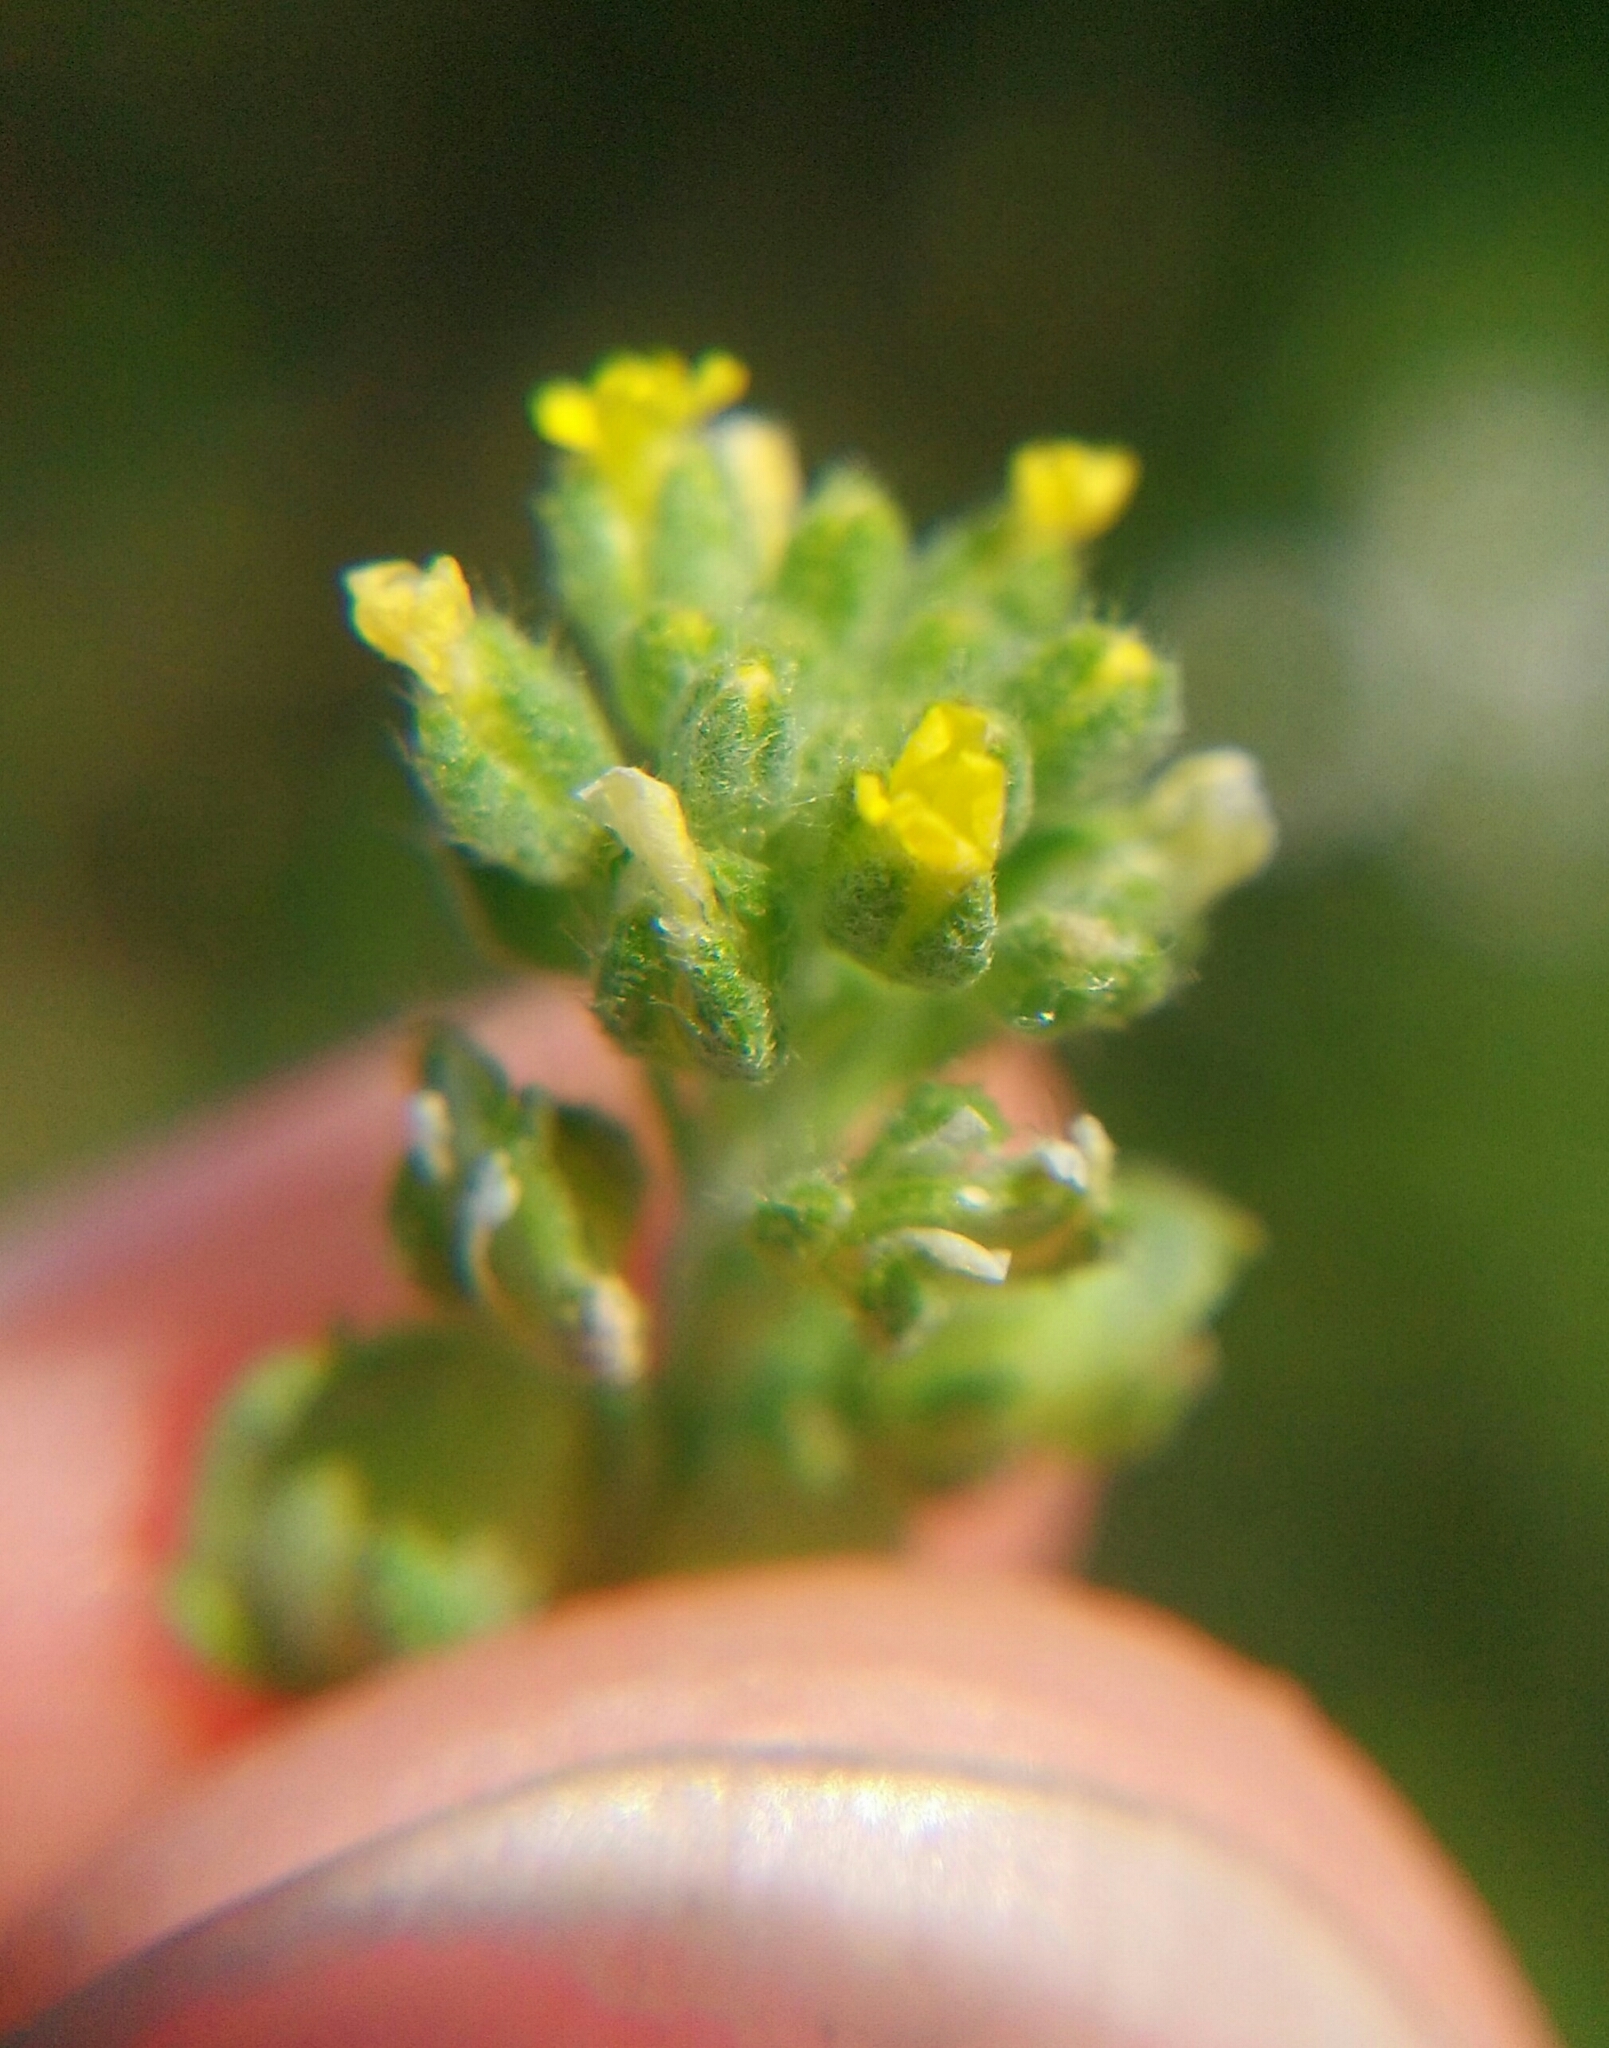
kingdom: Plantae
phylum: Tracheophyta
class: Magnoliopsida
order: Brassicales
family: Brassicaceae
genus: Alyssum
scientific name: Alyssum alyssoides
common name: Small alison
